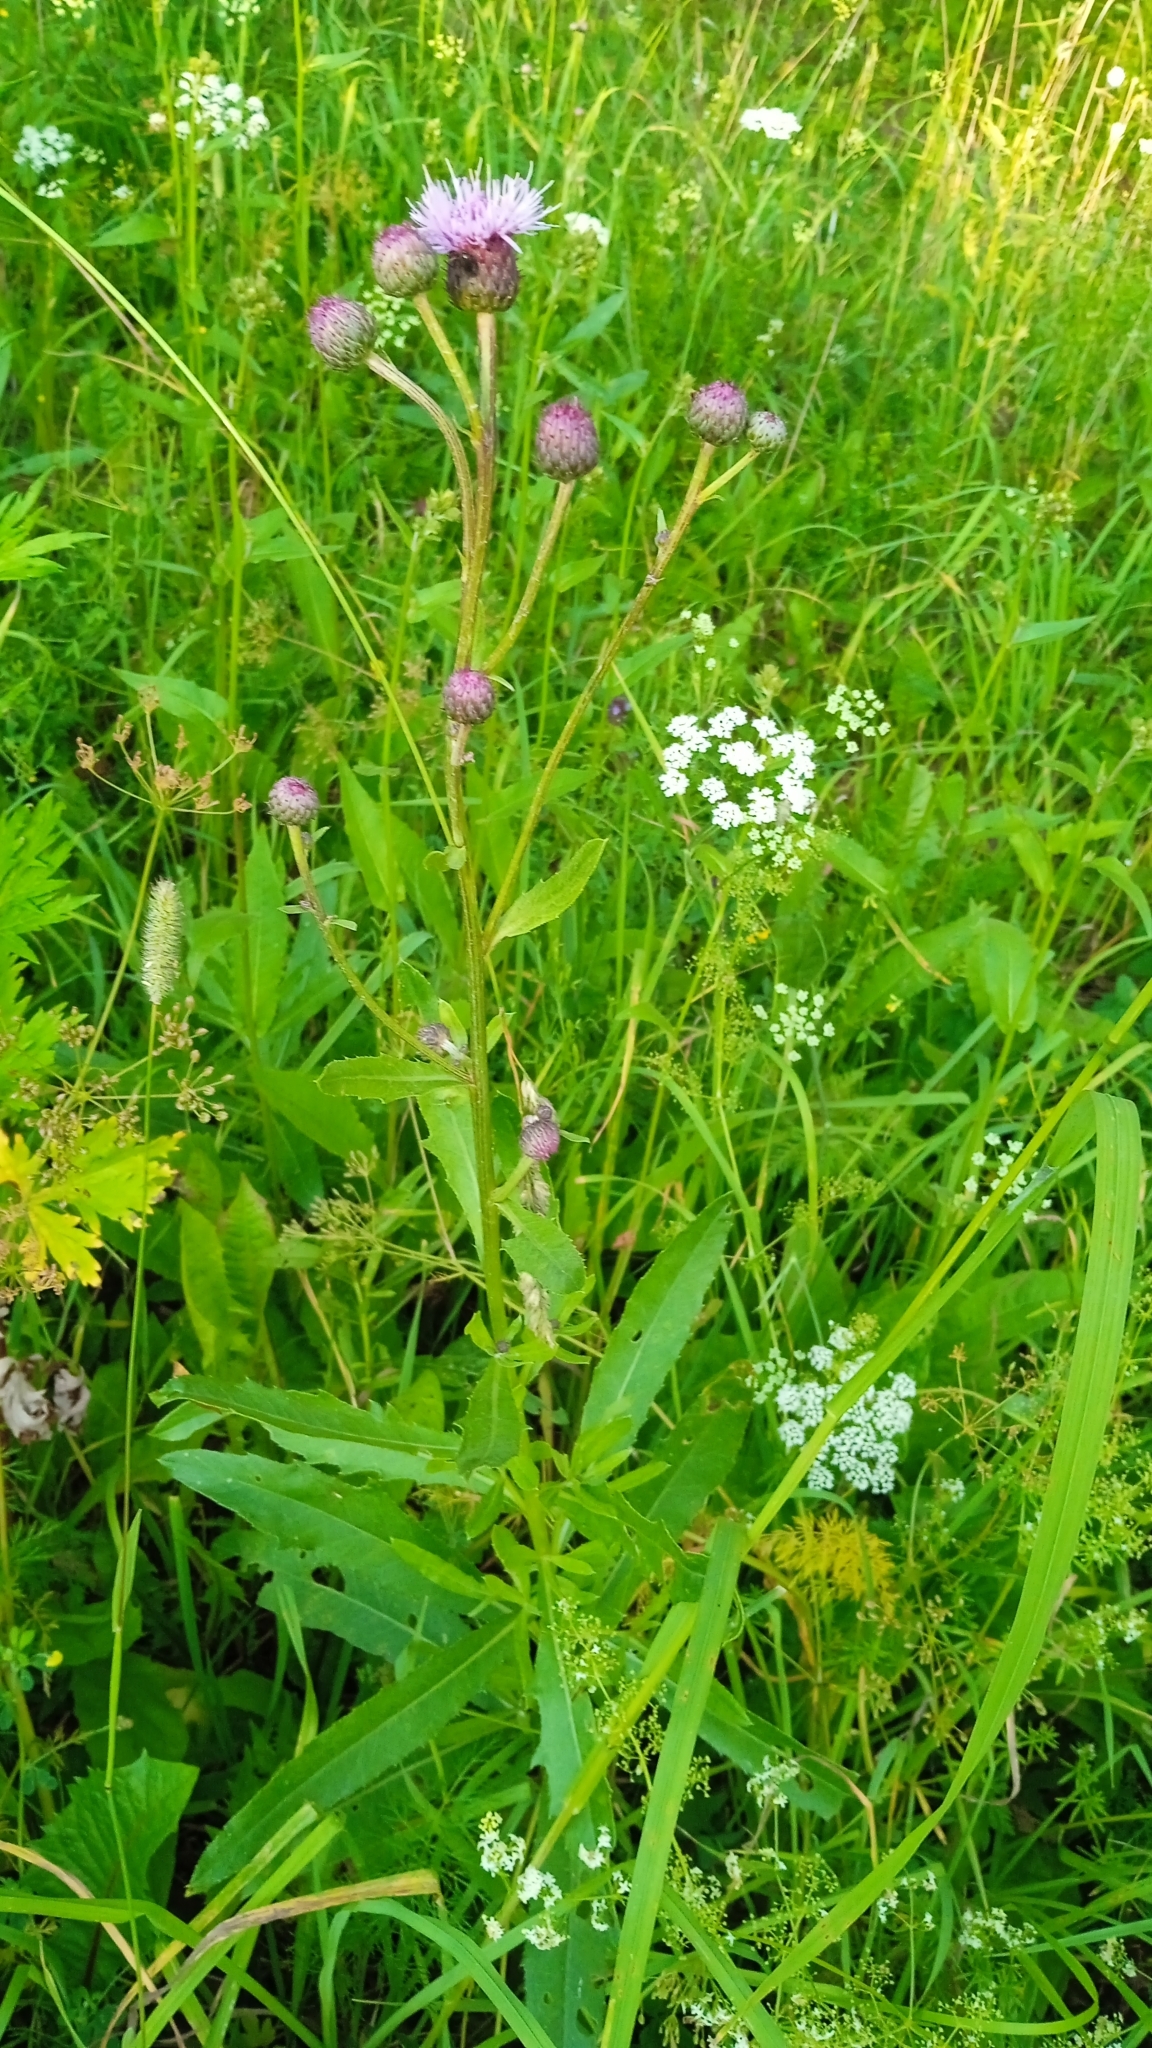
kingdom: Plantae
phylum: Tracheophyta
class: Magnoliopsida
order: Asterales
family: Asteraceae
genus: Cirsium
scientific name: Cirsium arvense
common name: Creeping thistle
